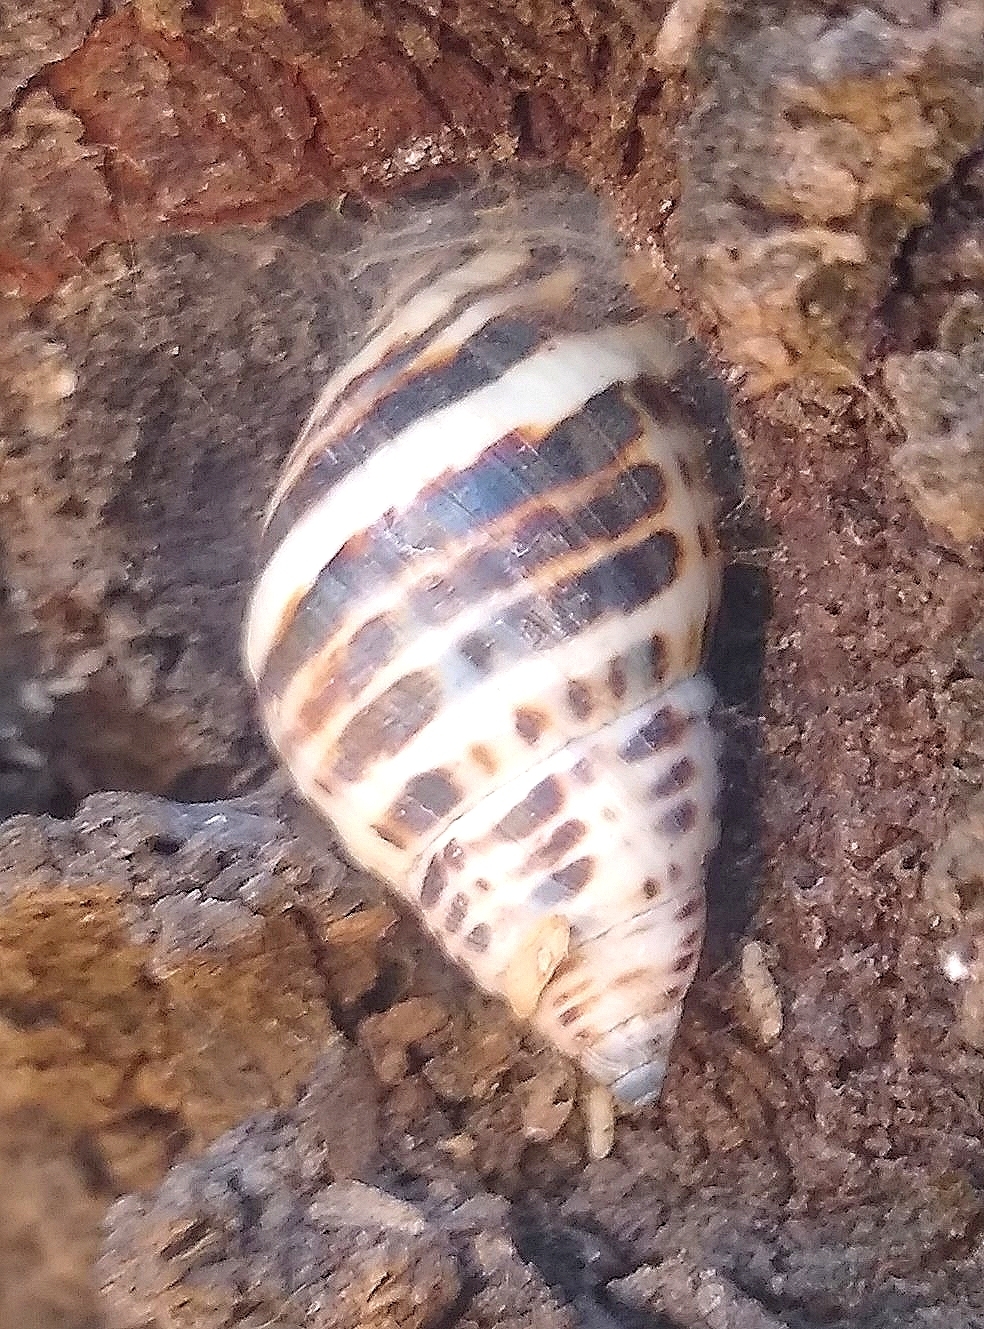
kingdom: Animalia
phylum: Mollusca
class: Gastropoda
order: Stylommatophora
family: Bulimulidae
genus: Drymaeus
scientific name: Drymaeus poecilus
